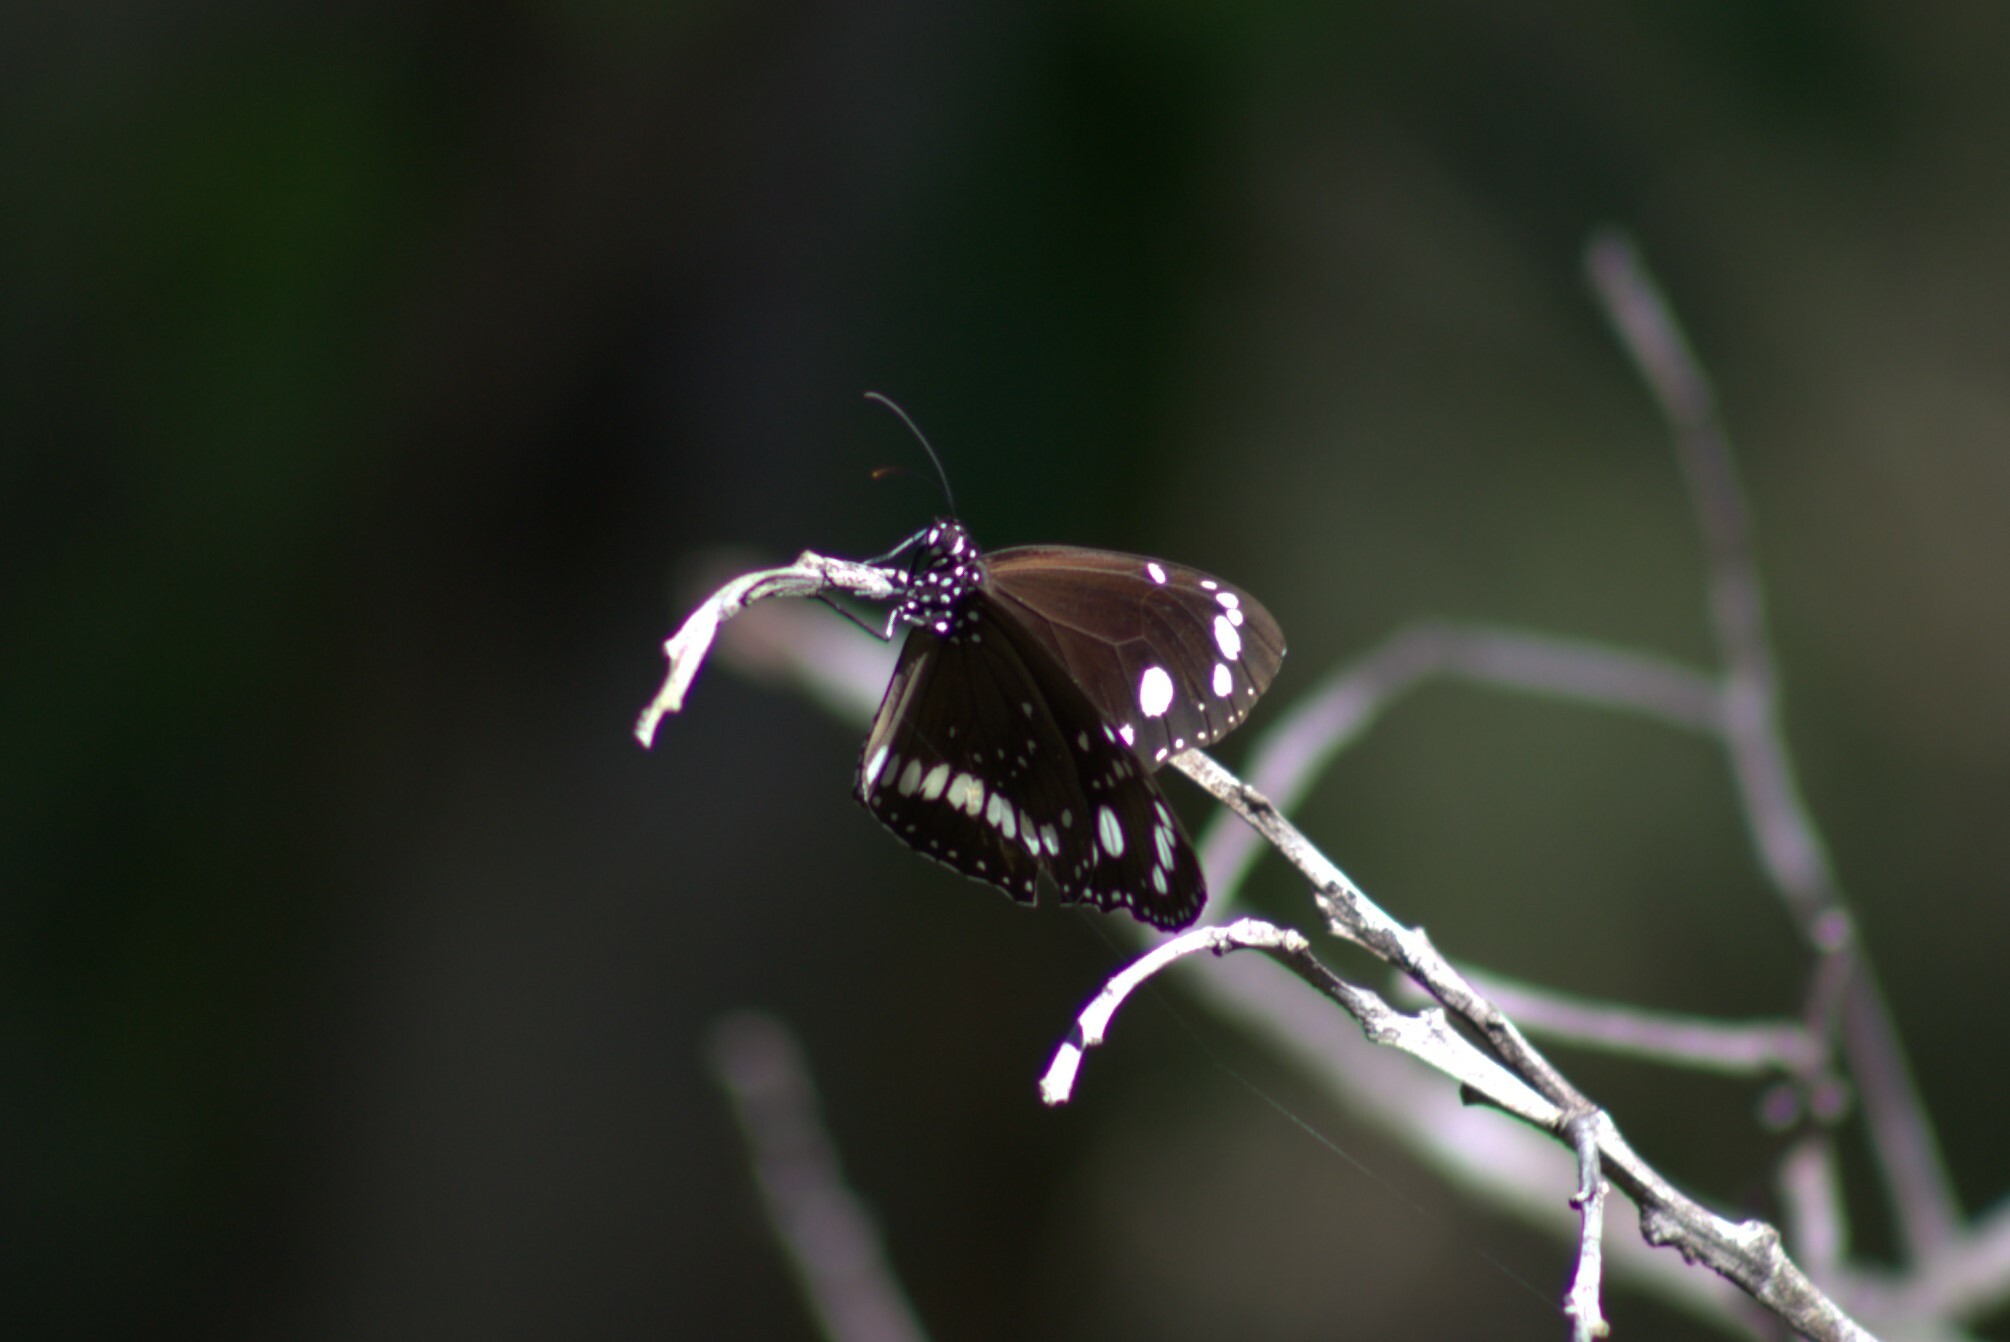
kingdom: Animalia
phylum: Arthropoda
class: Insecta
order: Lepidoptera
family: Nymphalidae
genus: Euploea
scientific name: Euploea core
